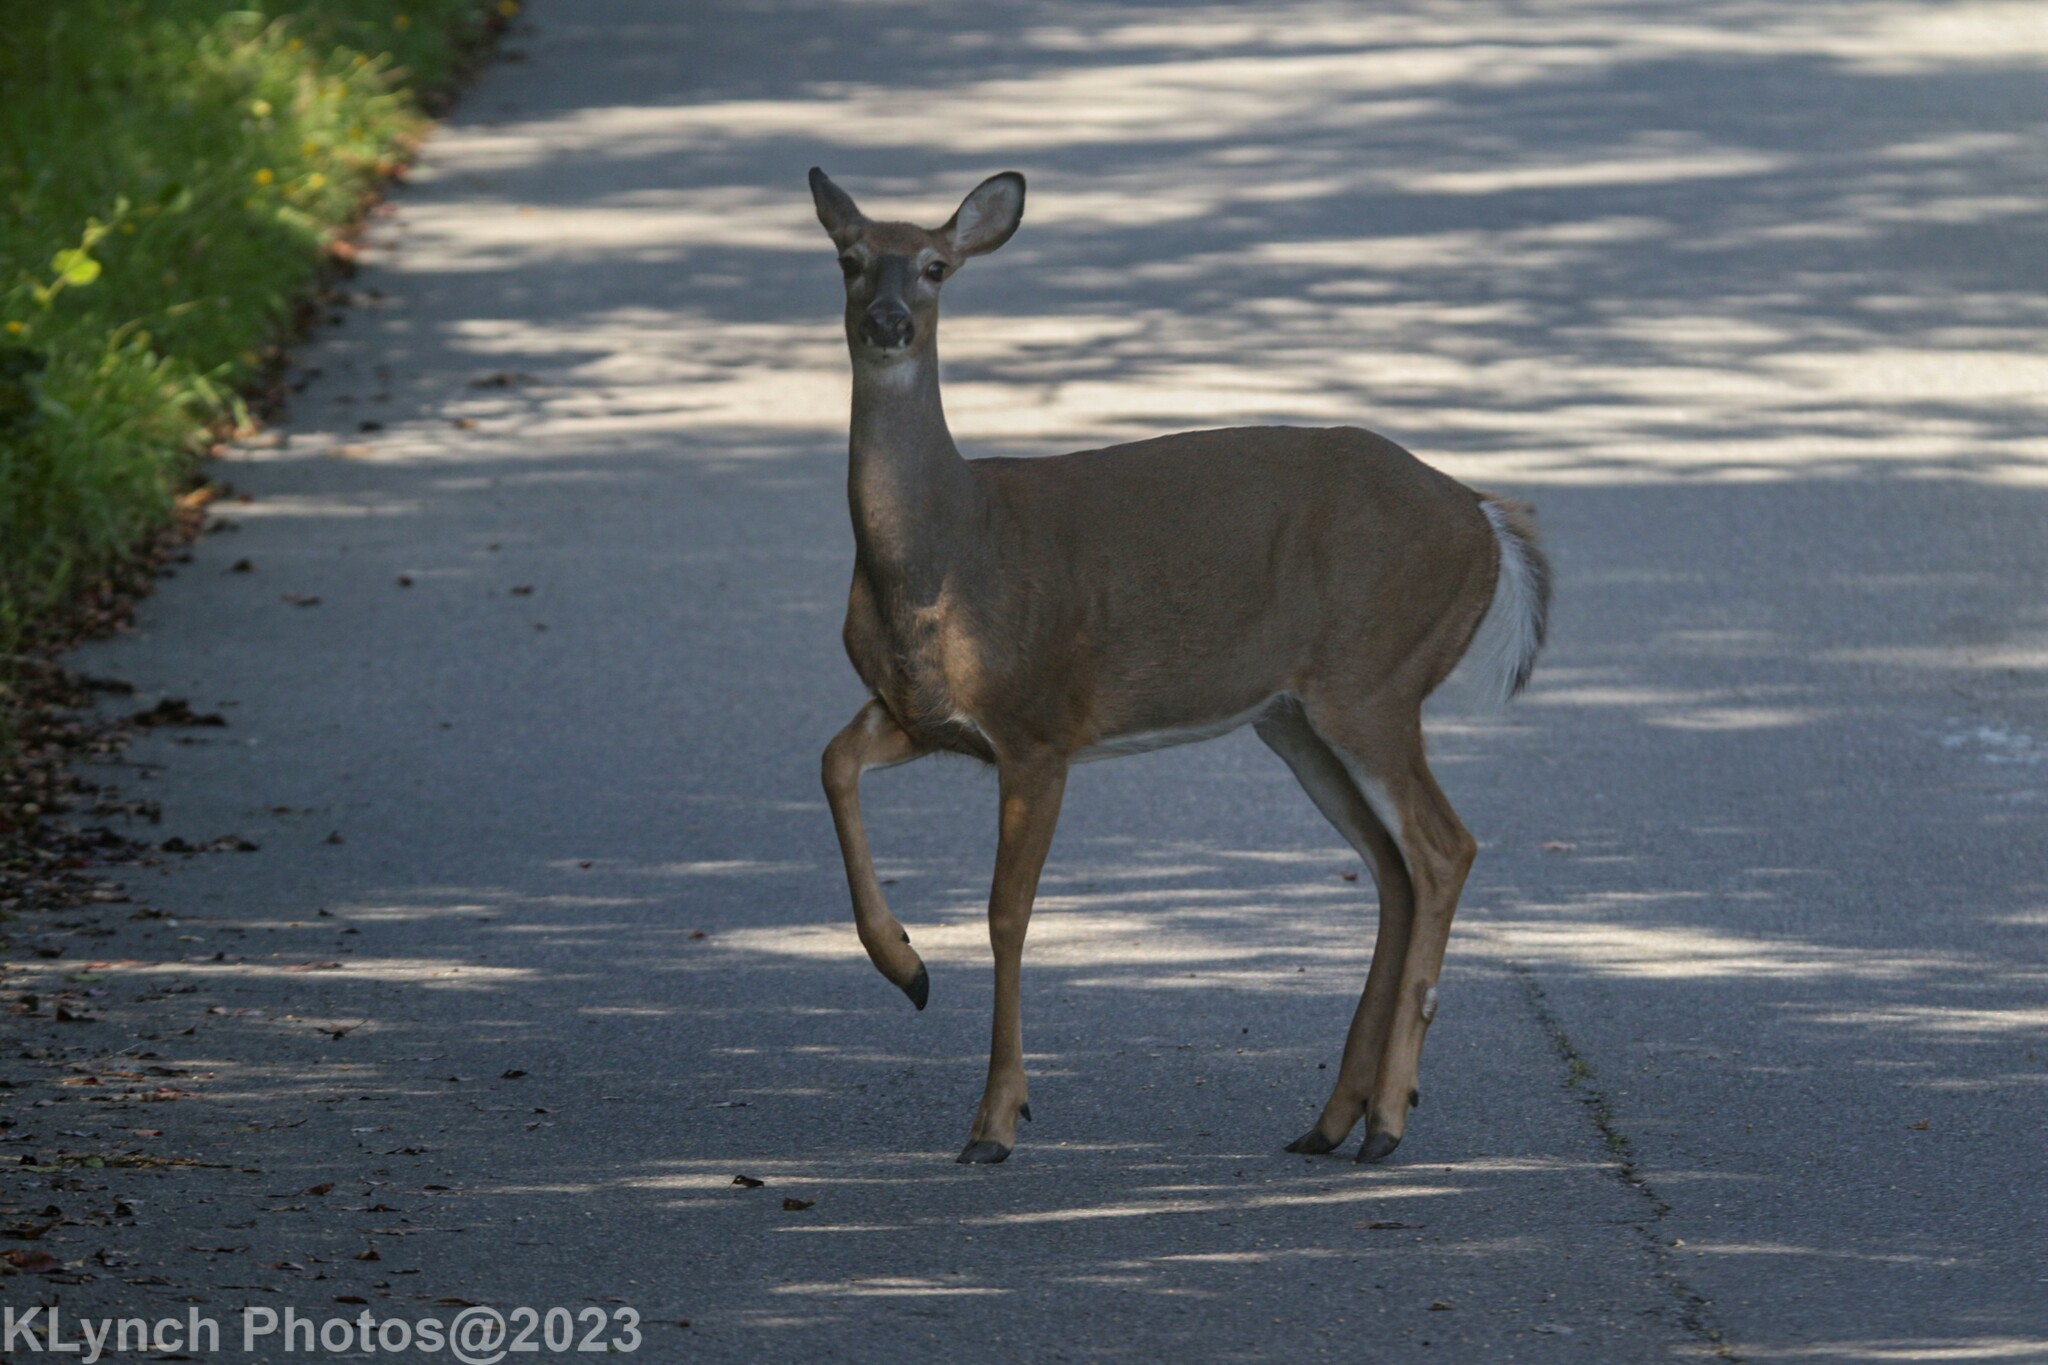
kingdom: Animalia
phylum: Chordata
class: Mammalia
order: Artiodactyla
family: Cervidae
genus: Odocoileus
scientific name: Odocoileus virginianus
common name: White-tailed deer
